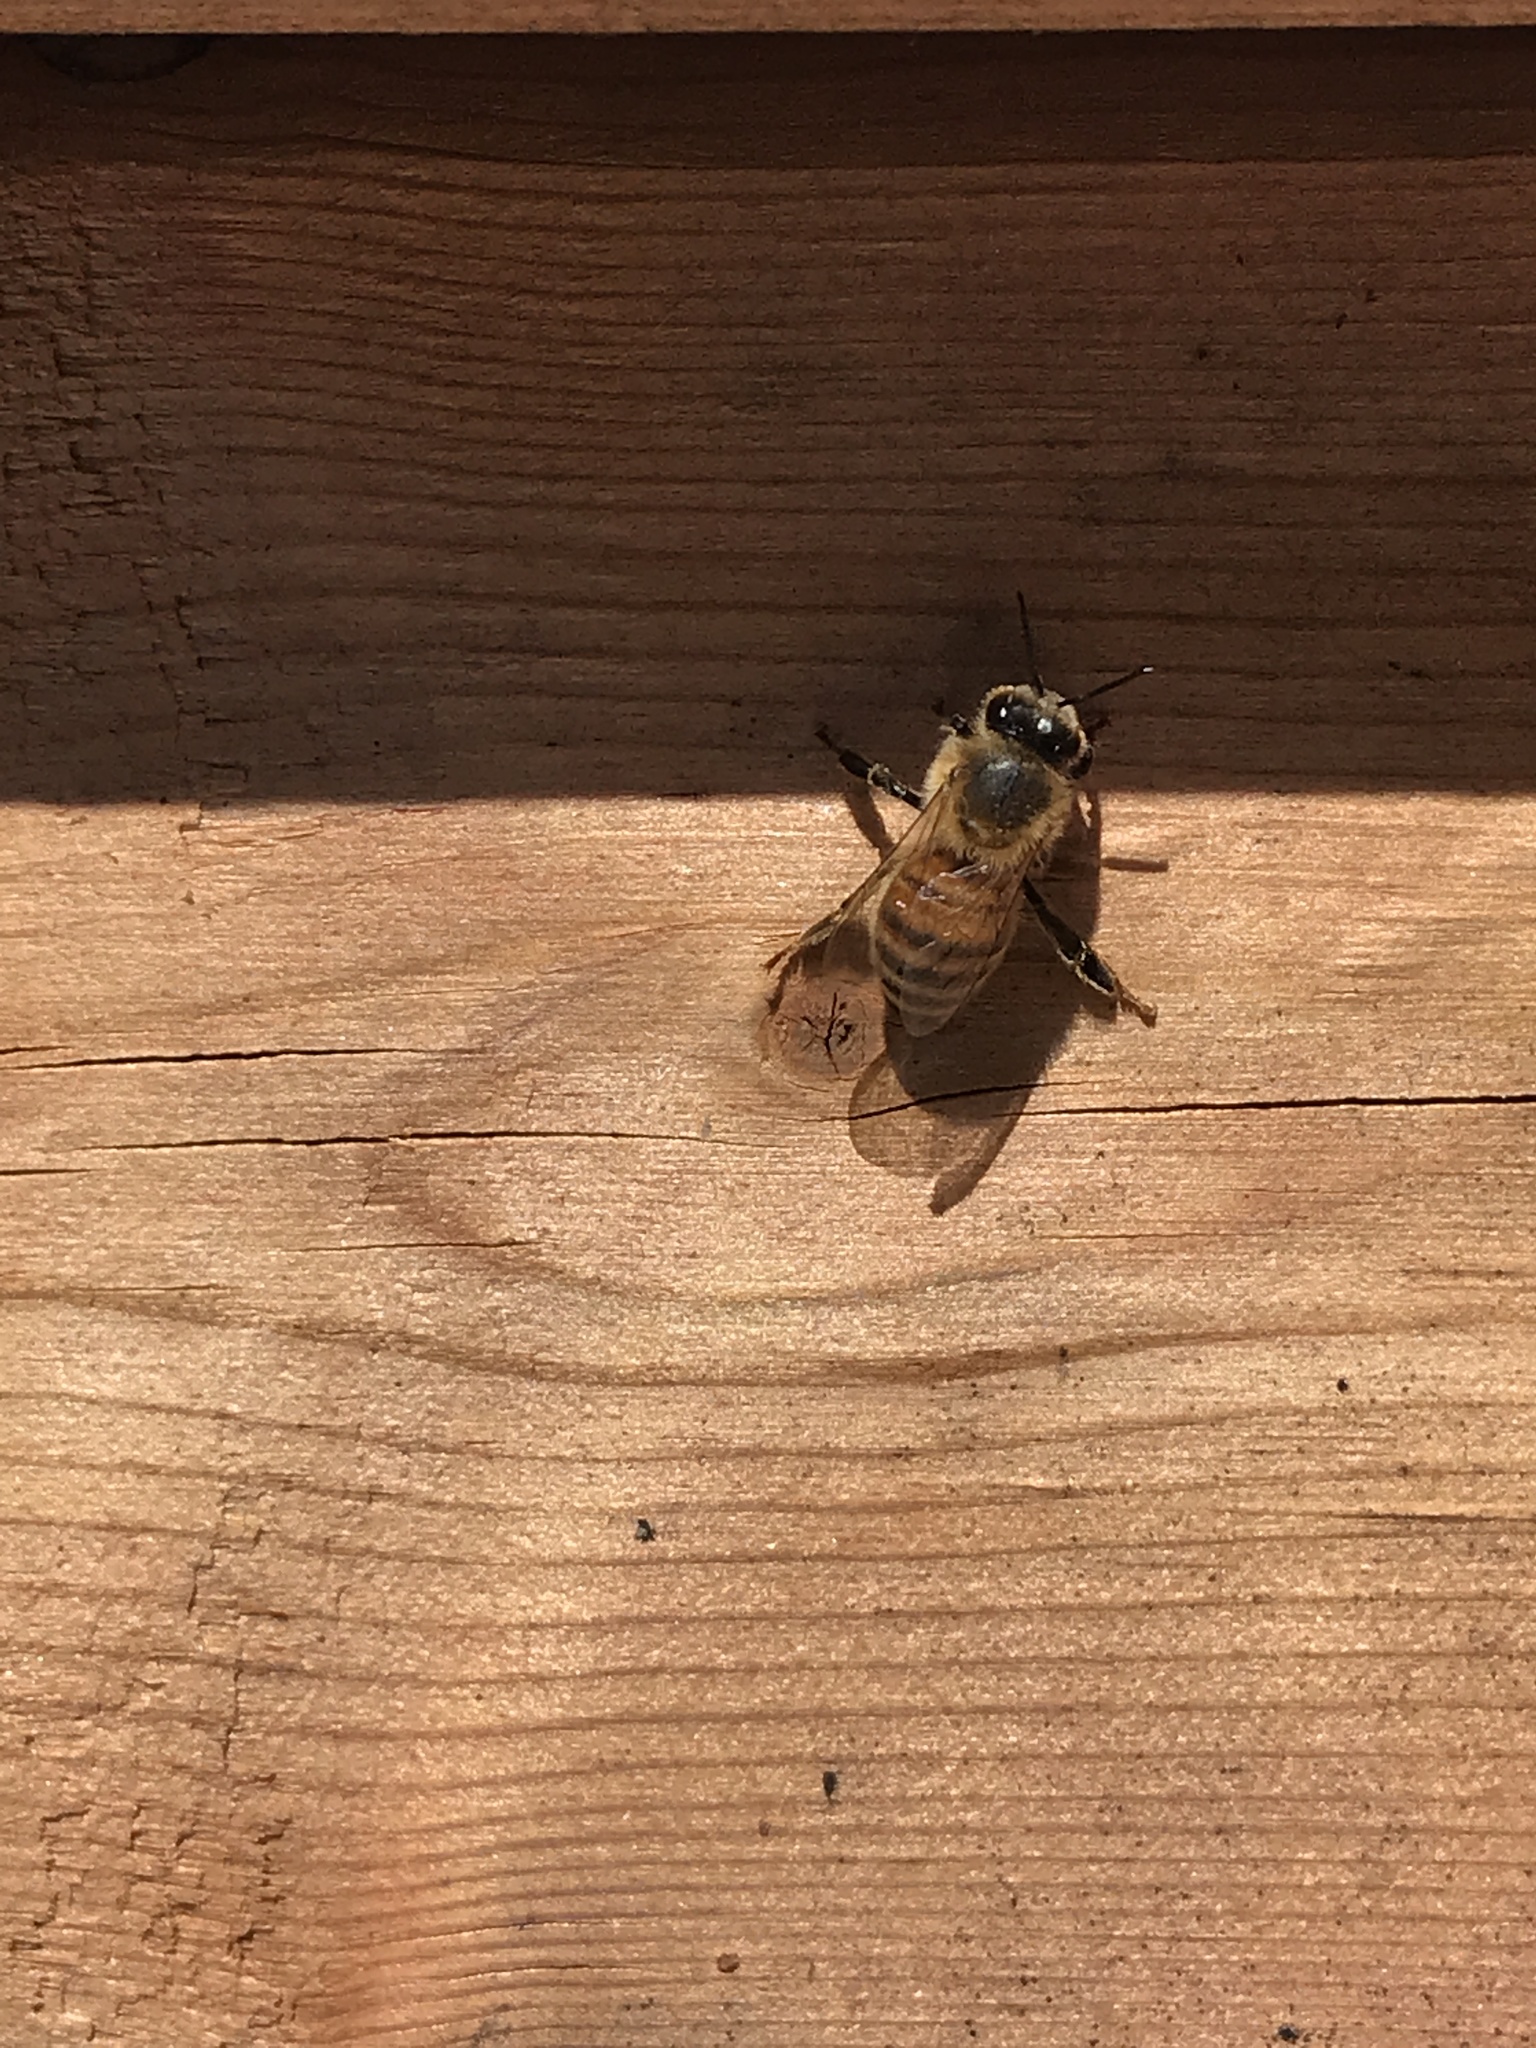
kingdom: Animalia
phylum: Arthropoda
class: Insecta
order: Hymenoptera
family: Apidae
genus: Apis
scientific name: Apis mellifera
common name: Honey bee
